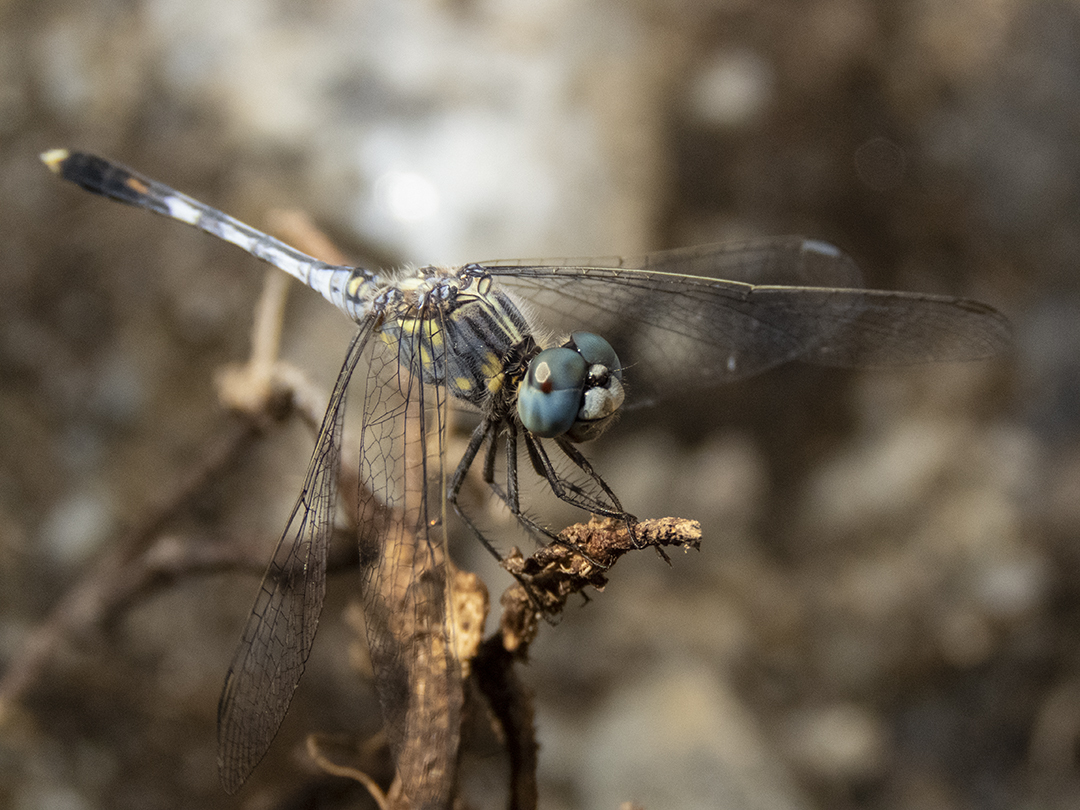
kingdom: Animalia
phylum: Arthropoda
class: Insecta
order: Odonata
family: Libellulidae
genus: Diplacodes
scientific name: Diplacodes trivialis
